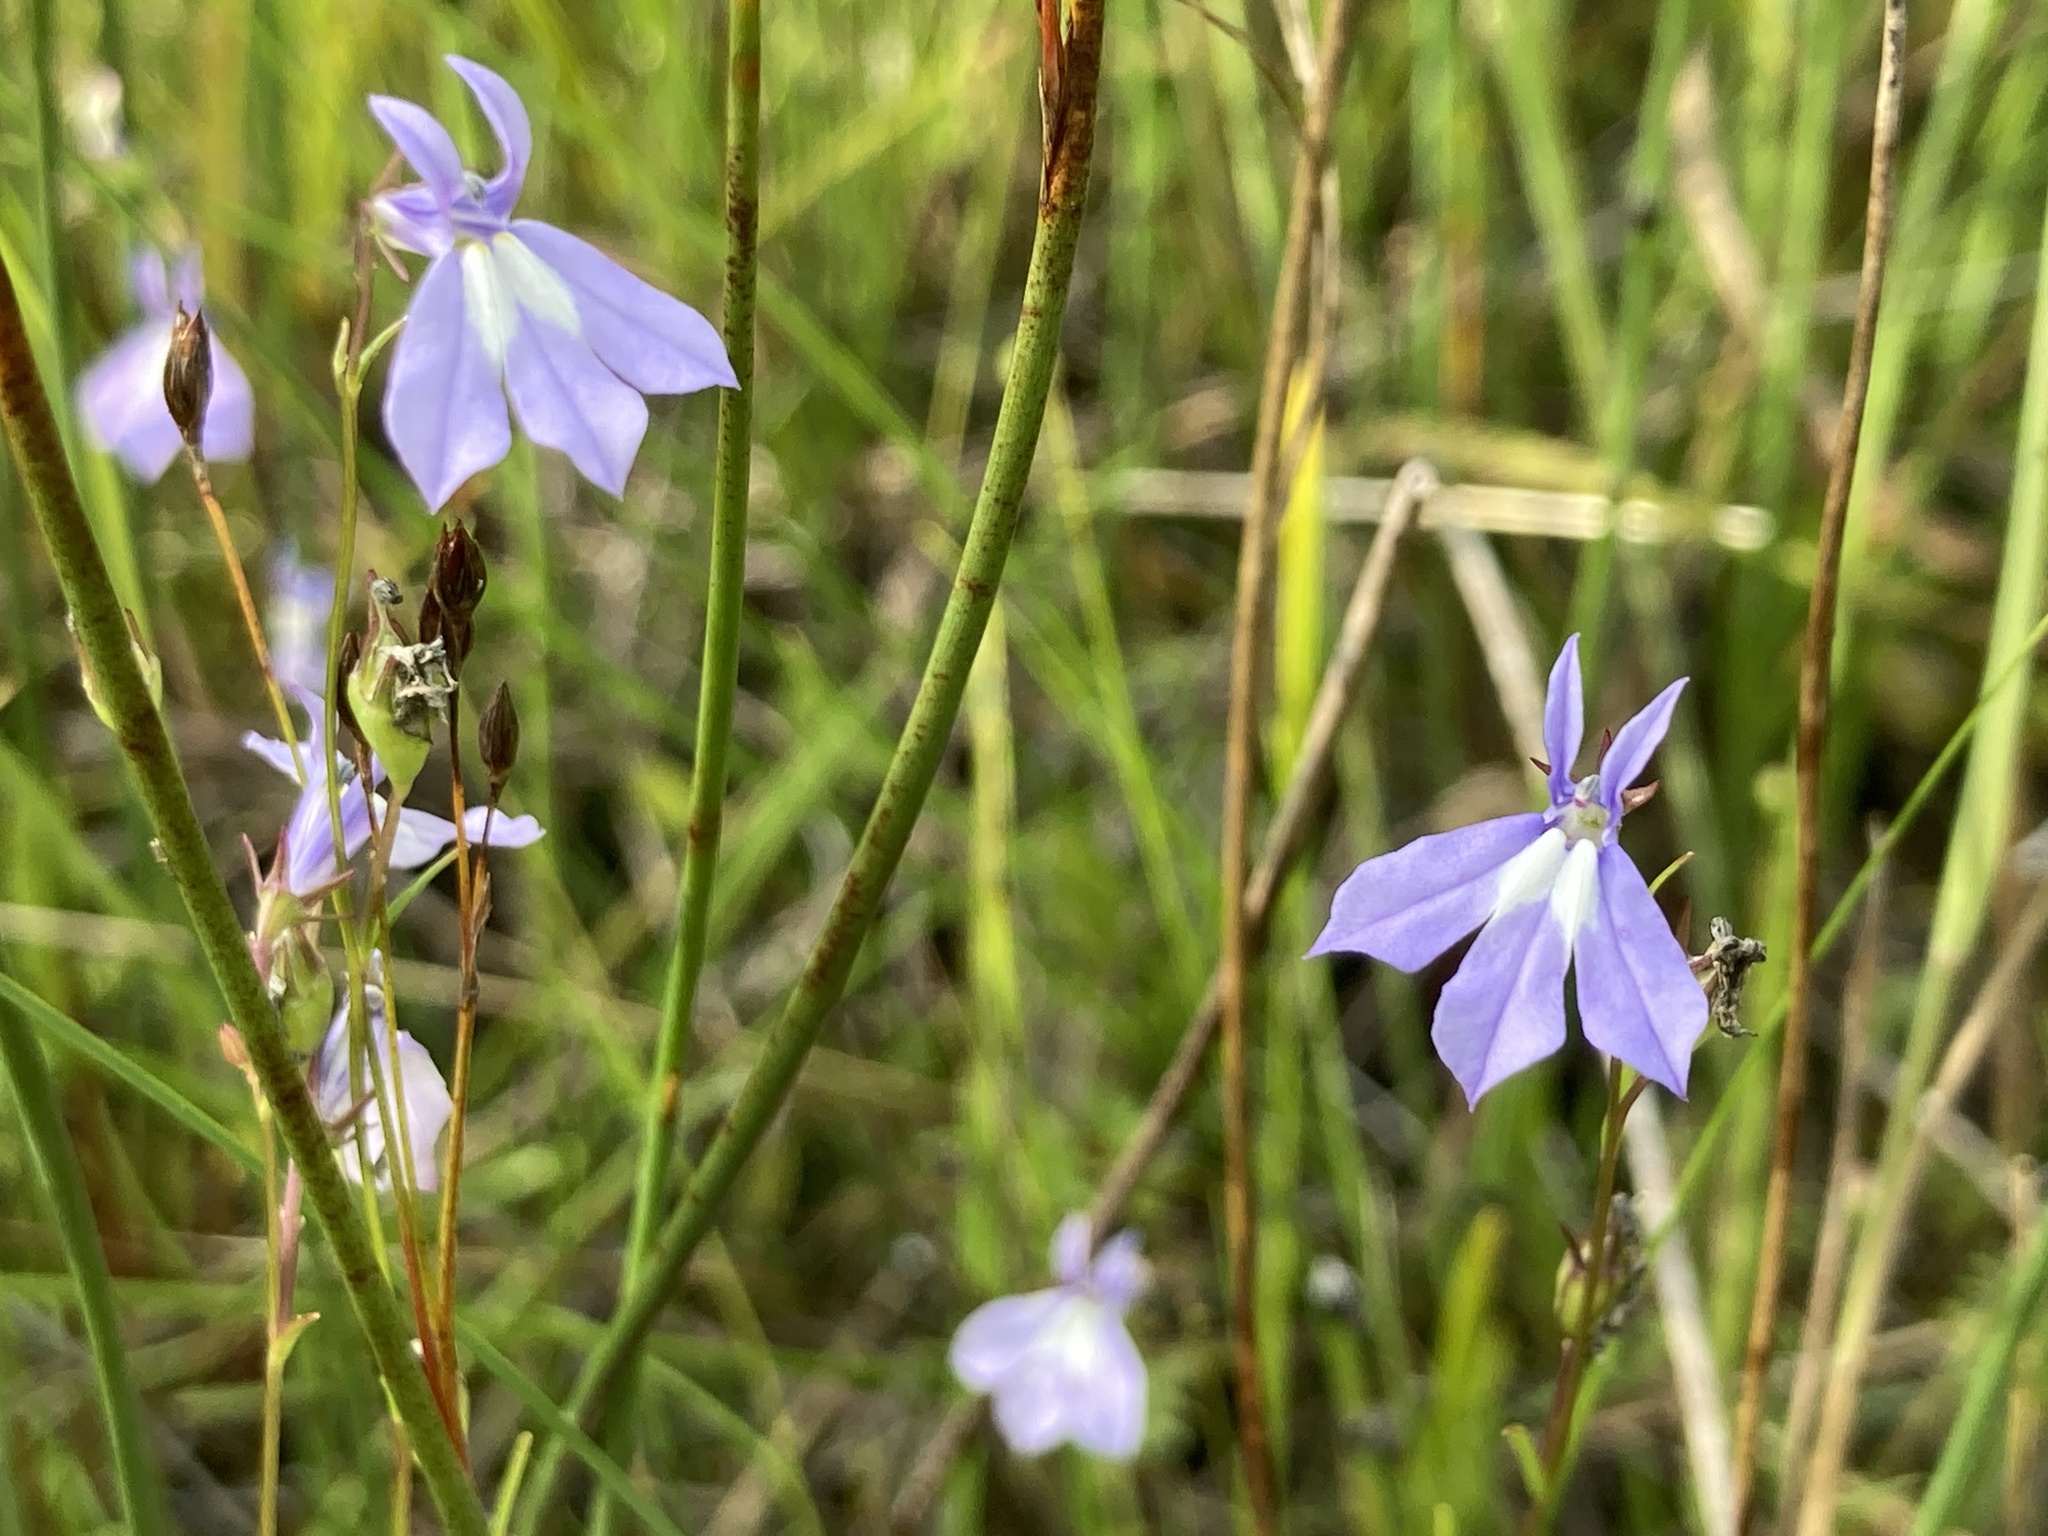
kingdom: Plantae
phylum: Tracheophyta
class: Magnoliopsida
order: Asterales
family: Campanulaceae
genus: Lobelia
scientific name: Lobelia kalmii
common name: Kalm's lobelia
